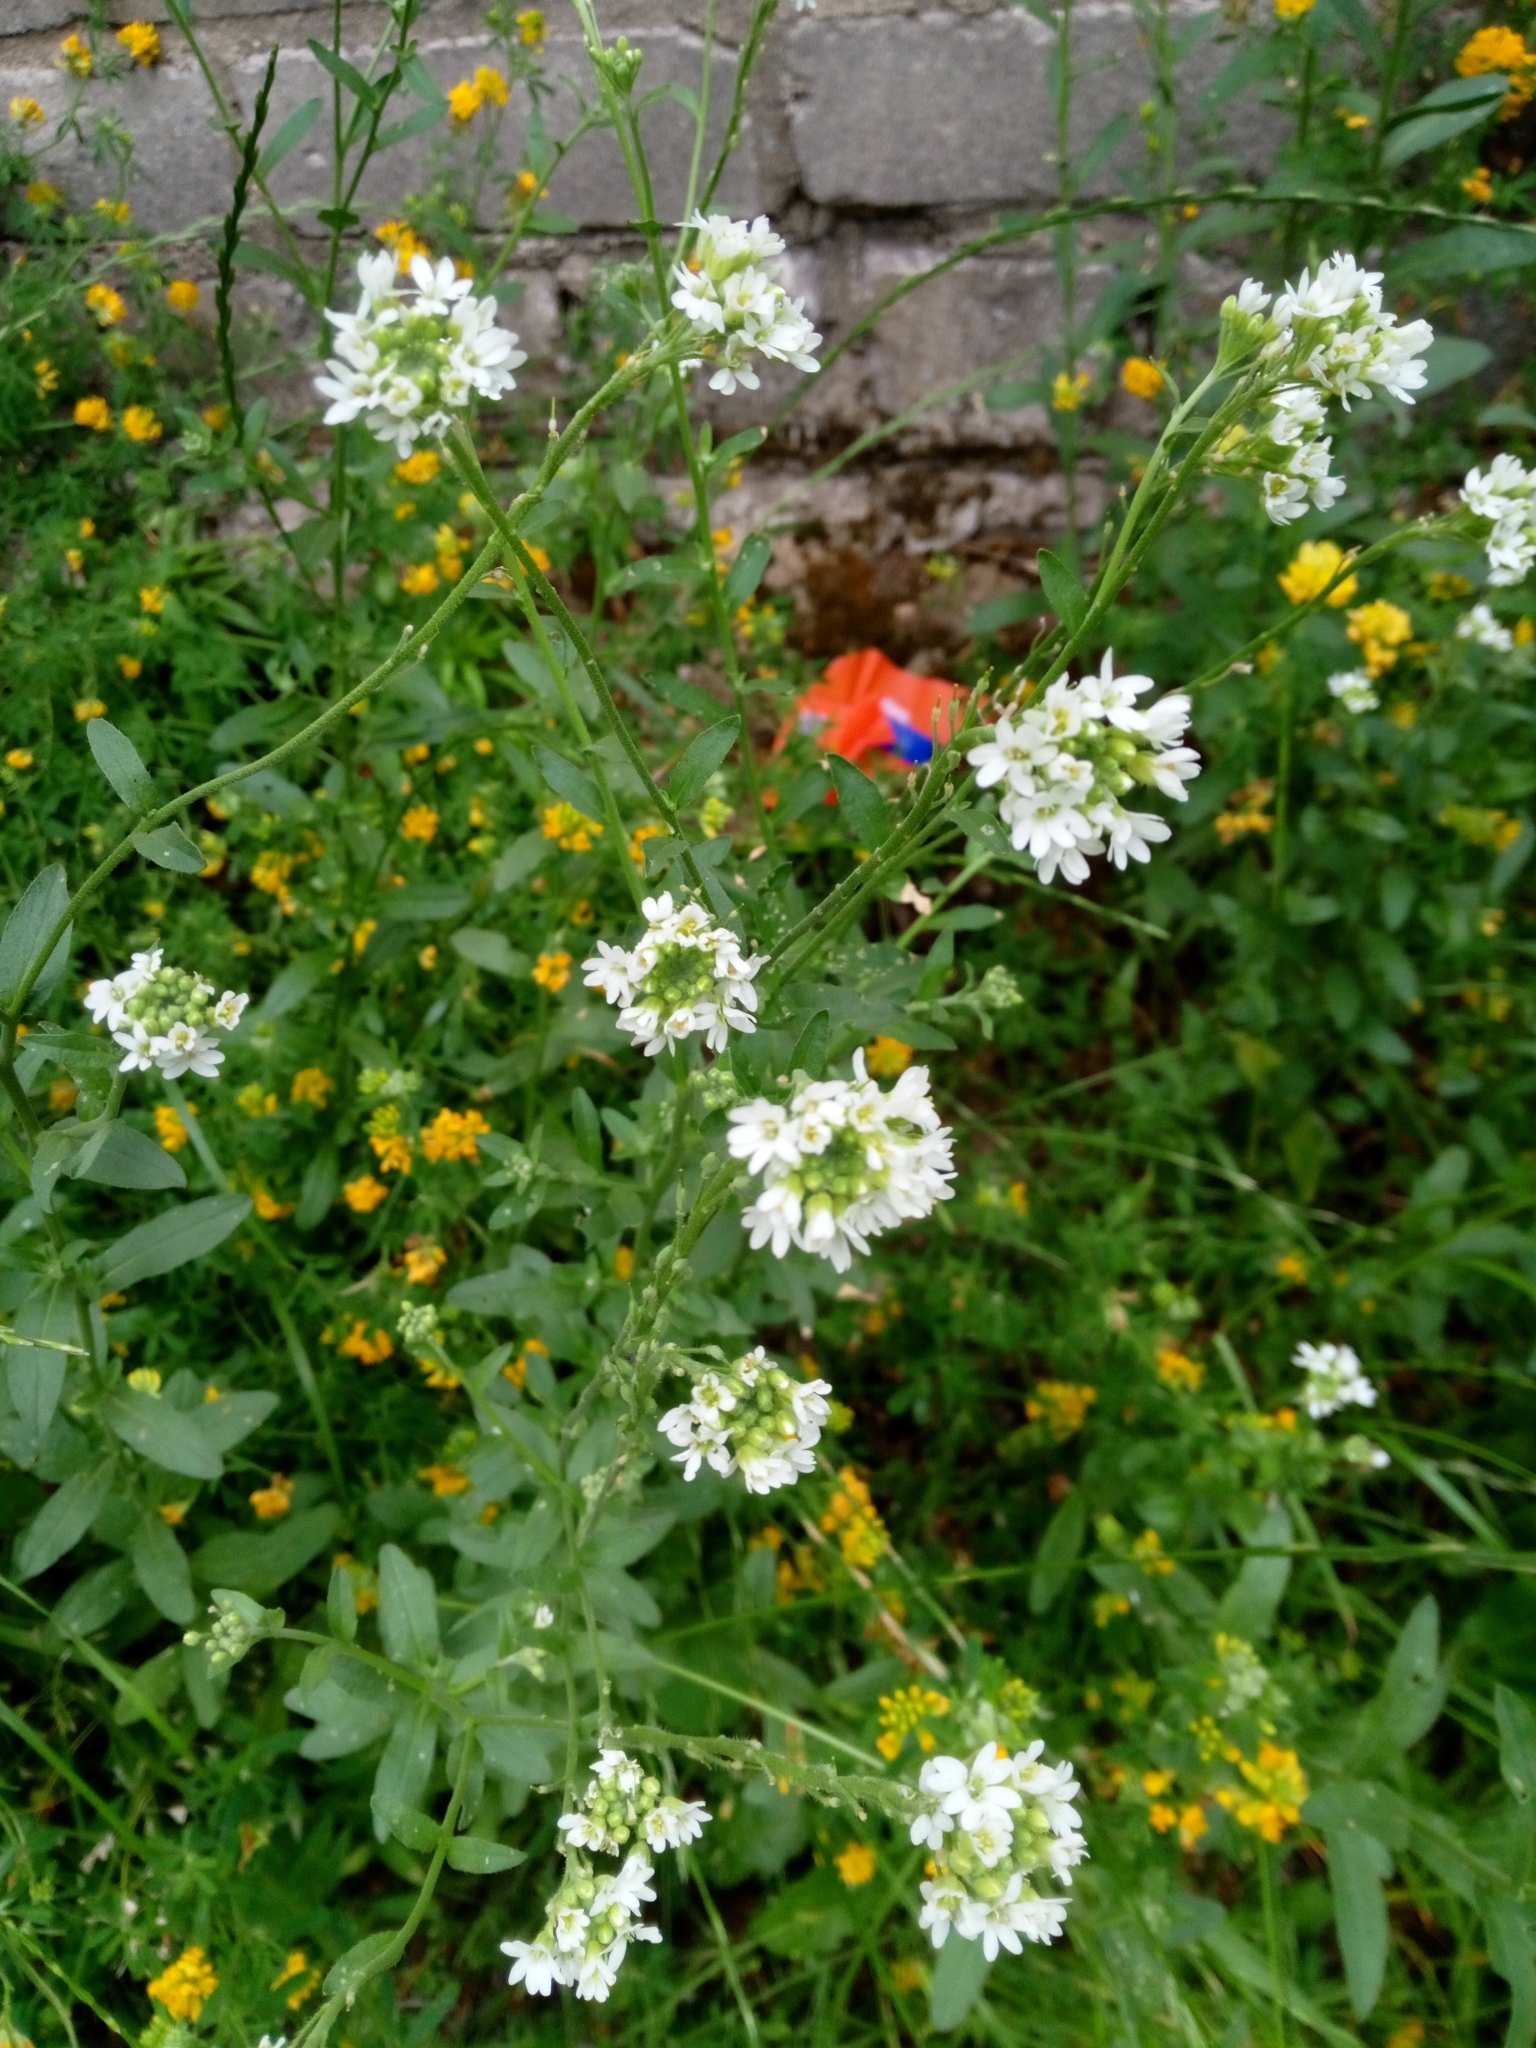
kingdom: Plantae
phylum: Tracheophyta
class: Magnoliopsida
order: Brassicales
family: Brassicaceae
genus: Berteroa
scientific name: Berteroa incana
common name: Hoary alison
